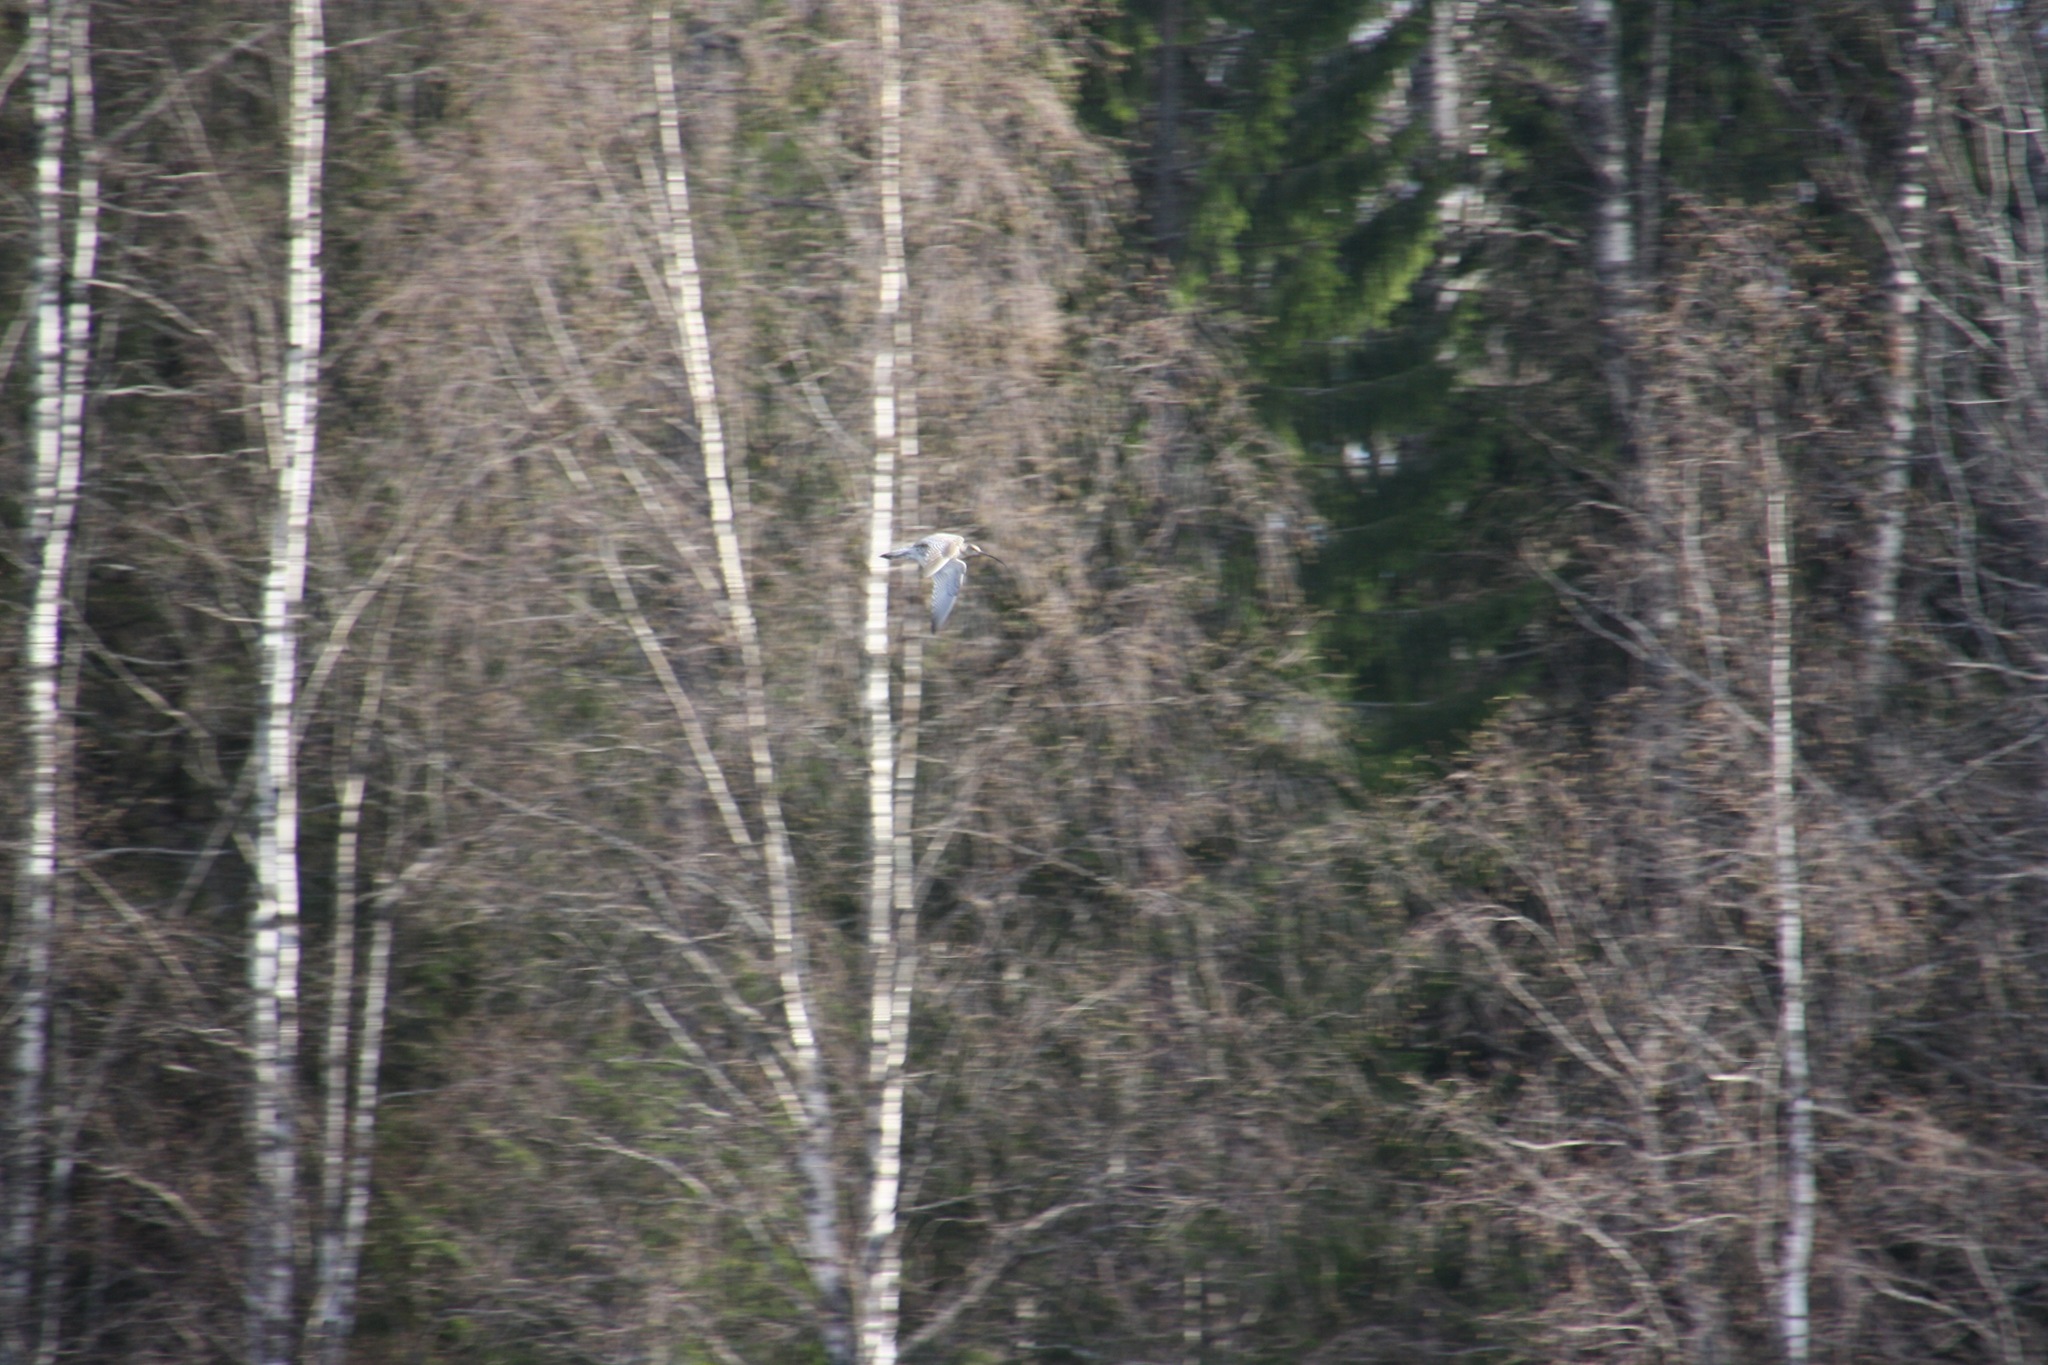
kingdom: Animalia
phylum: Chordata
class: Aves
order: Charadriiformes
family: Scolopacidae
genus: Numenius
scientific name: Numenius arquata
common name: Eurasian curlew
